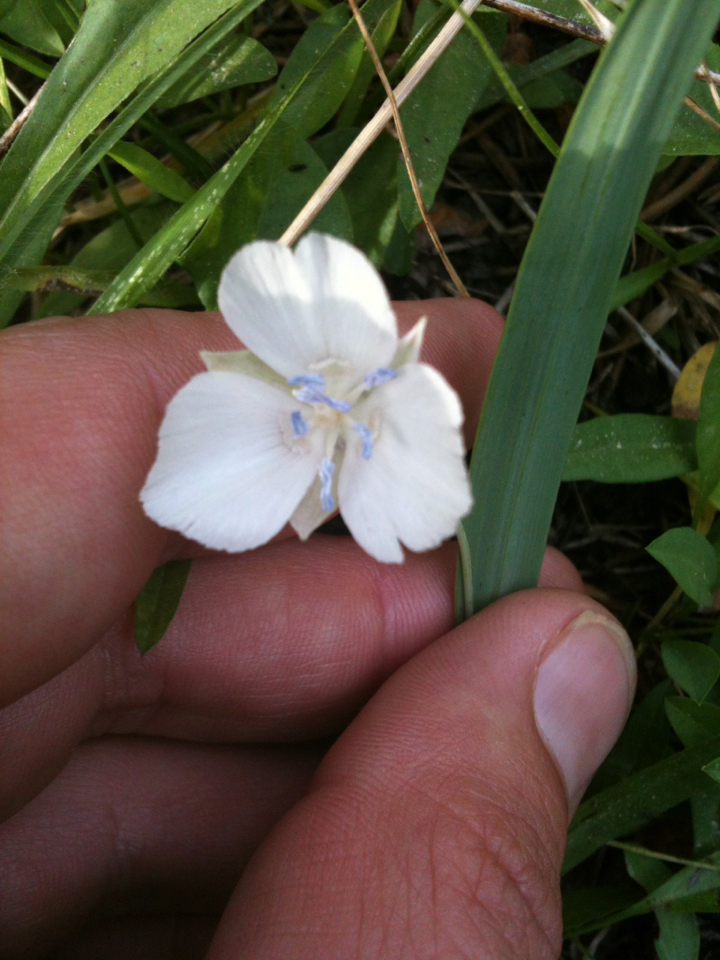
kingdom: Plantae
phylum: Tracheophyta
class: Liliopsida
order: Liliales
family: Liliaceae
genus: Calochortus
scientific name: Calochortus minimus
